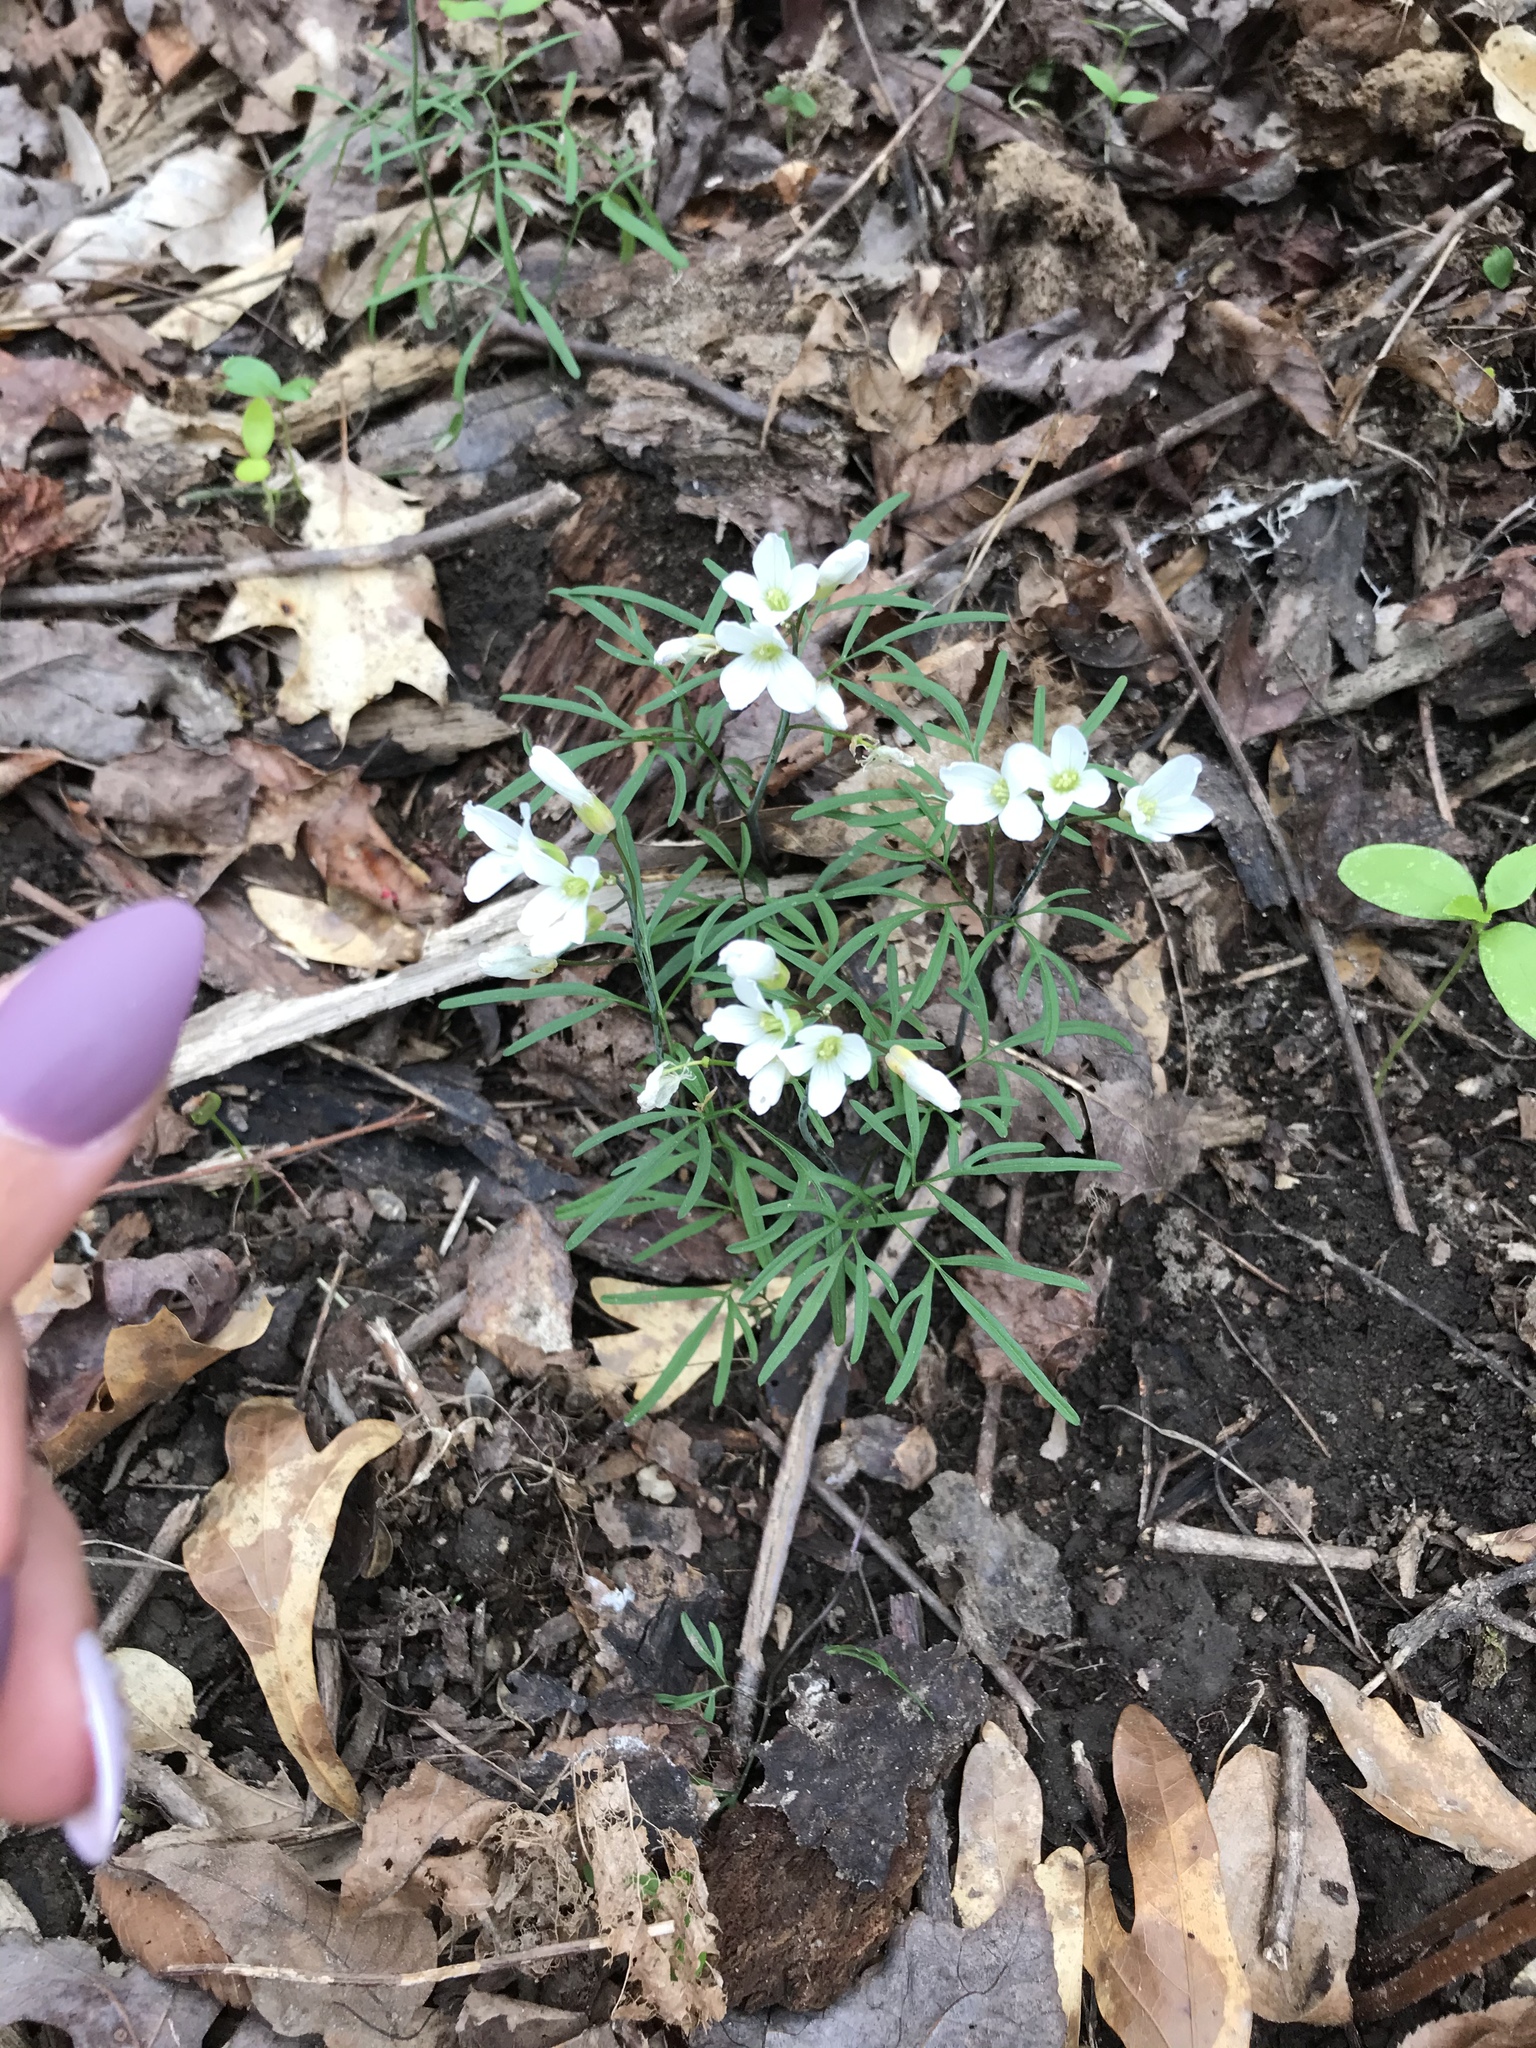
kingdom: Plantae
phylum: Tracheophyta
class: Magnoliopsida
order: Brassicales
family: Brassicaceae
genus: Cardamine
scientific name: Cardamine dissecta
